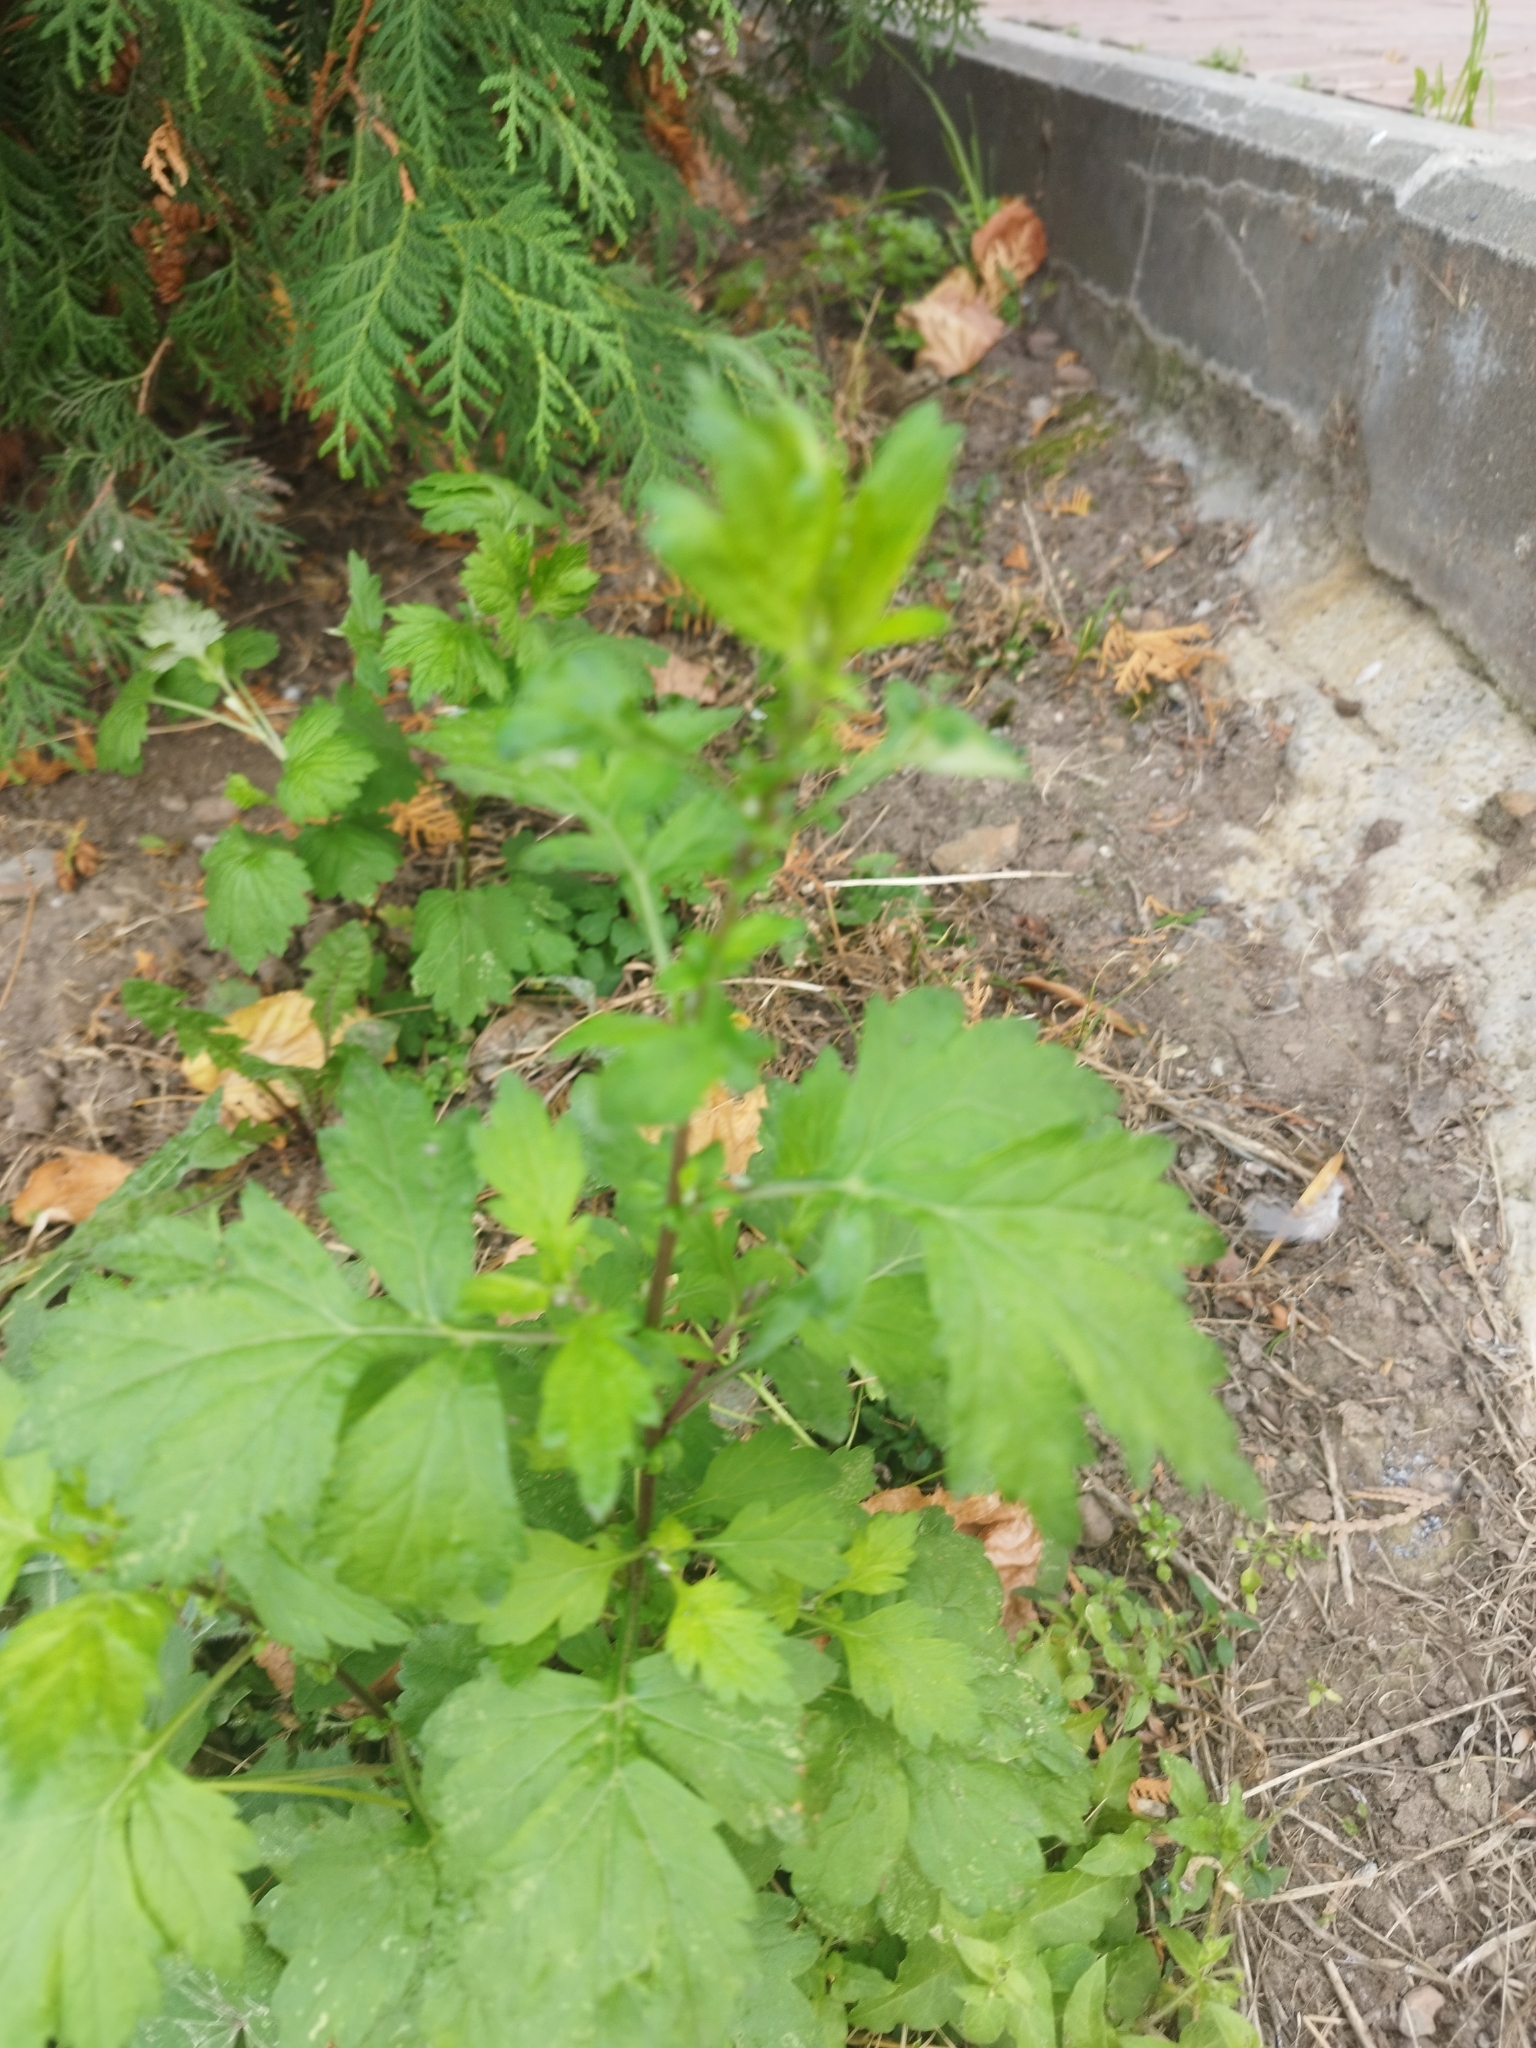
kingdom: Plantae
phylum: Tracheophyta
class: Magnoliopsida
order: Asterales
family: Asteraceae
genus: Artemisia
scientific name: Artemisia vulgaris
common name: Mugwort
